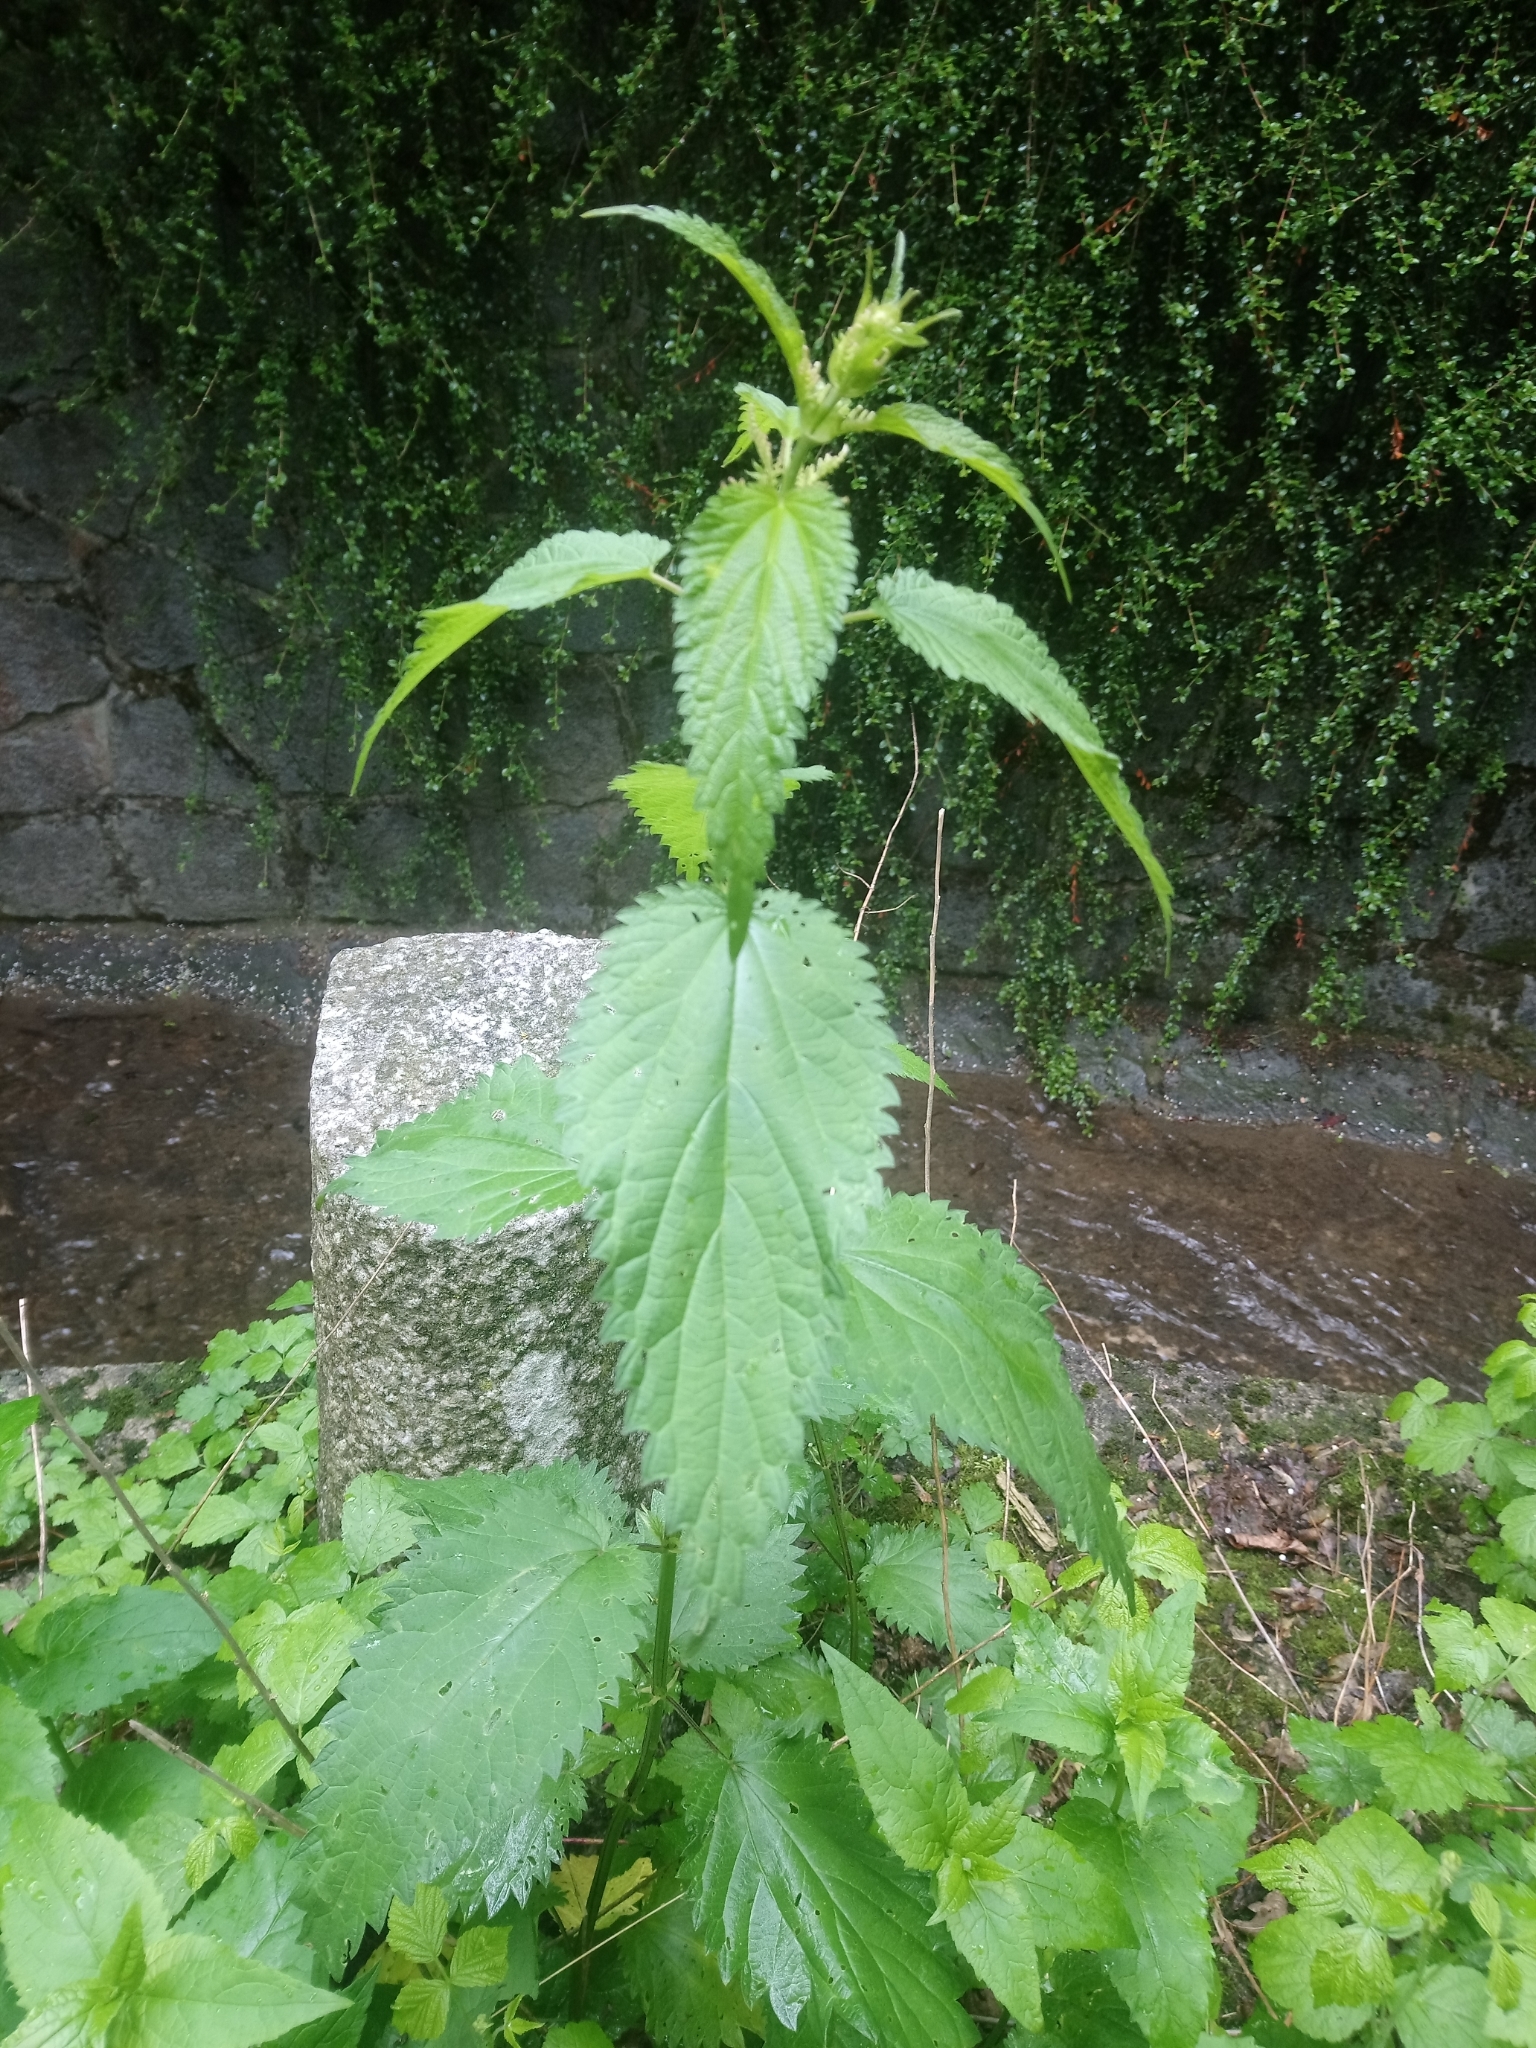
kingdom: Plantae
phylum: Tracheophyta
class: Magnoliopsida
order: Rosales
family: Urticaceae
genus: Urtica
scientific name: Urtica dioica
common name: Common nettle
